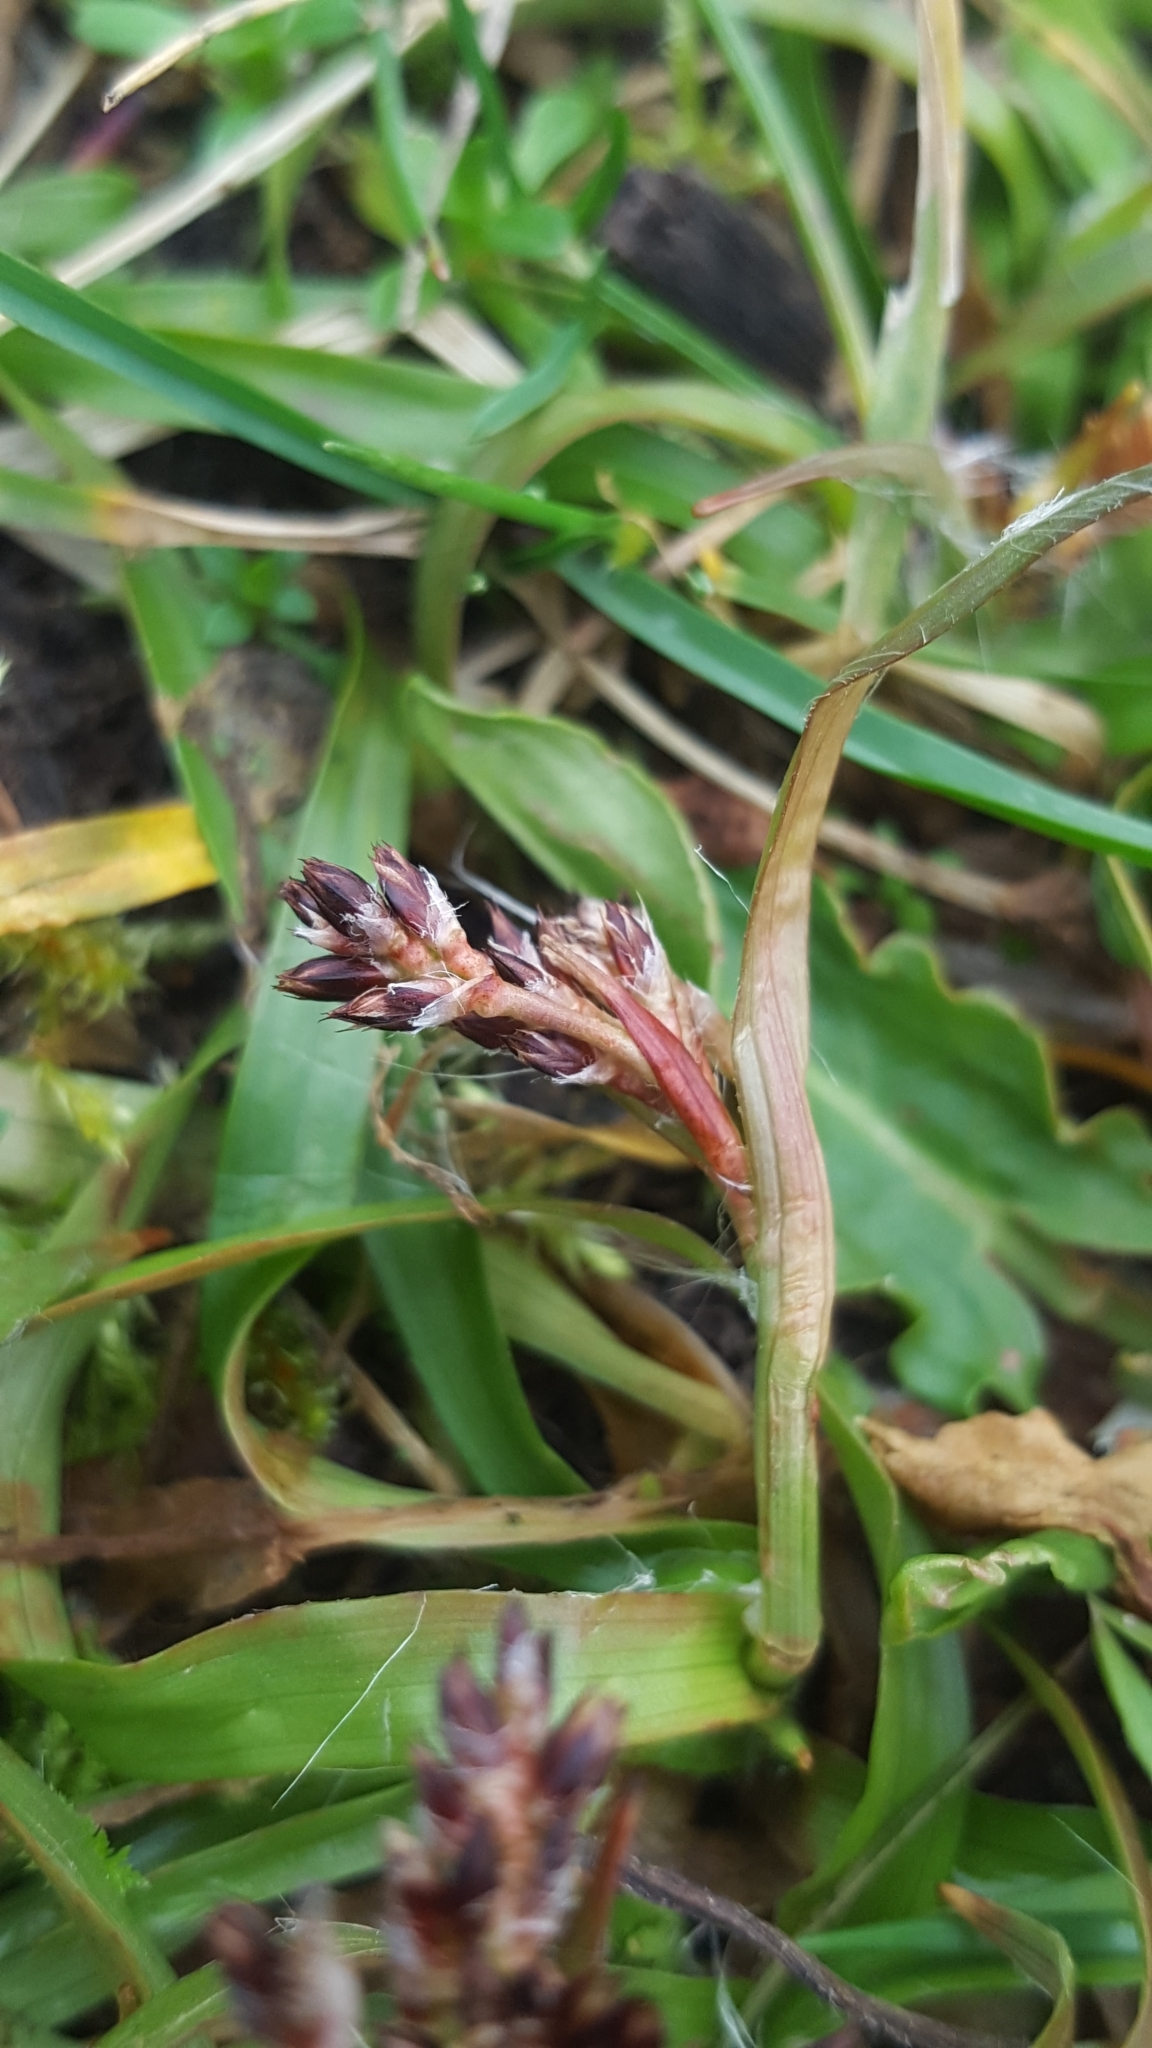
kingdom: Plantae
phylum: Tracheophyta
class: Liliopsida
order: Poales
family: Juncaceae
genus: Luzula
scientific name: Luzula campestris
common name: Field wood-rush
